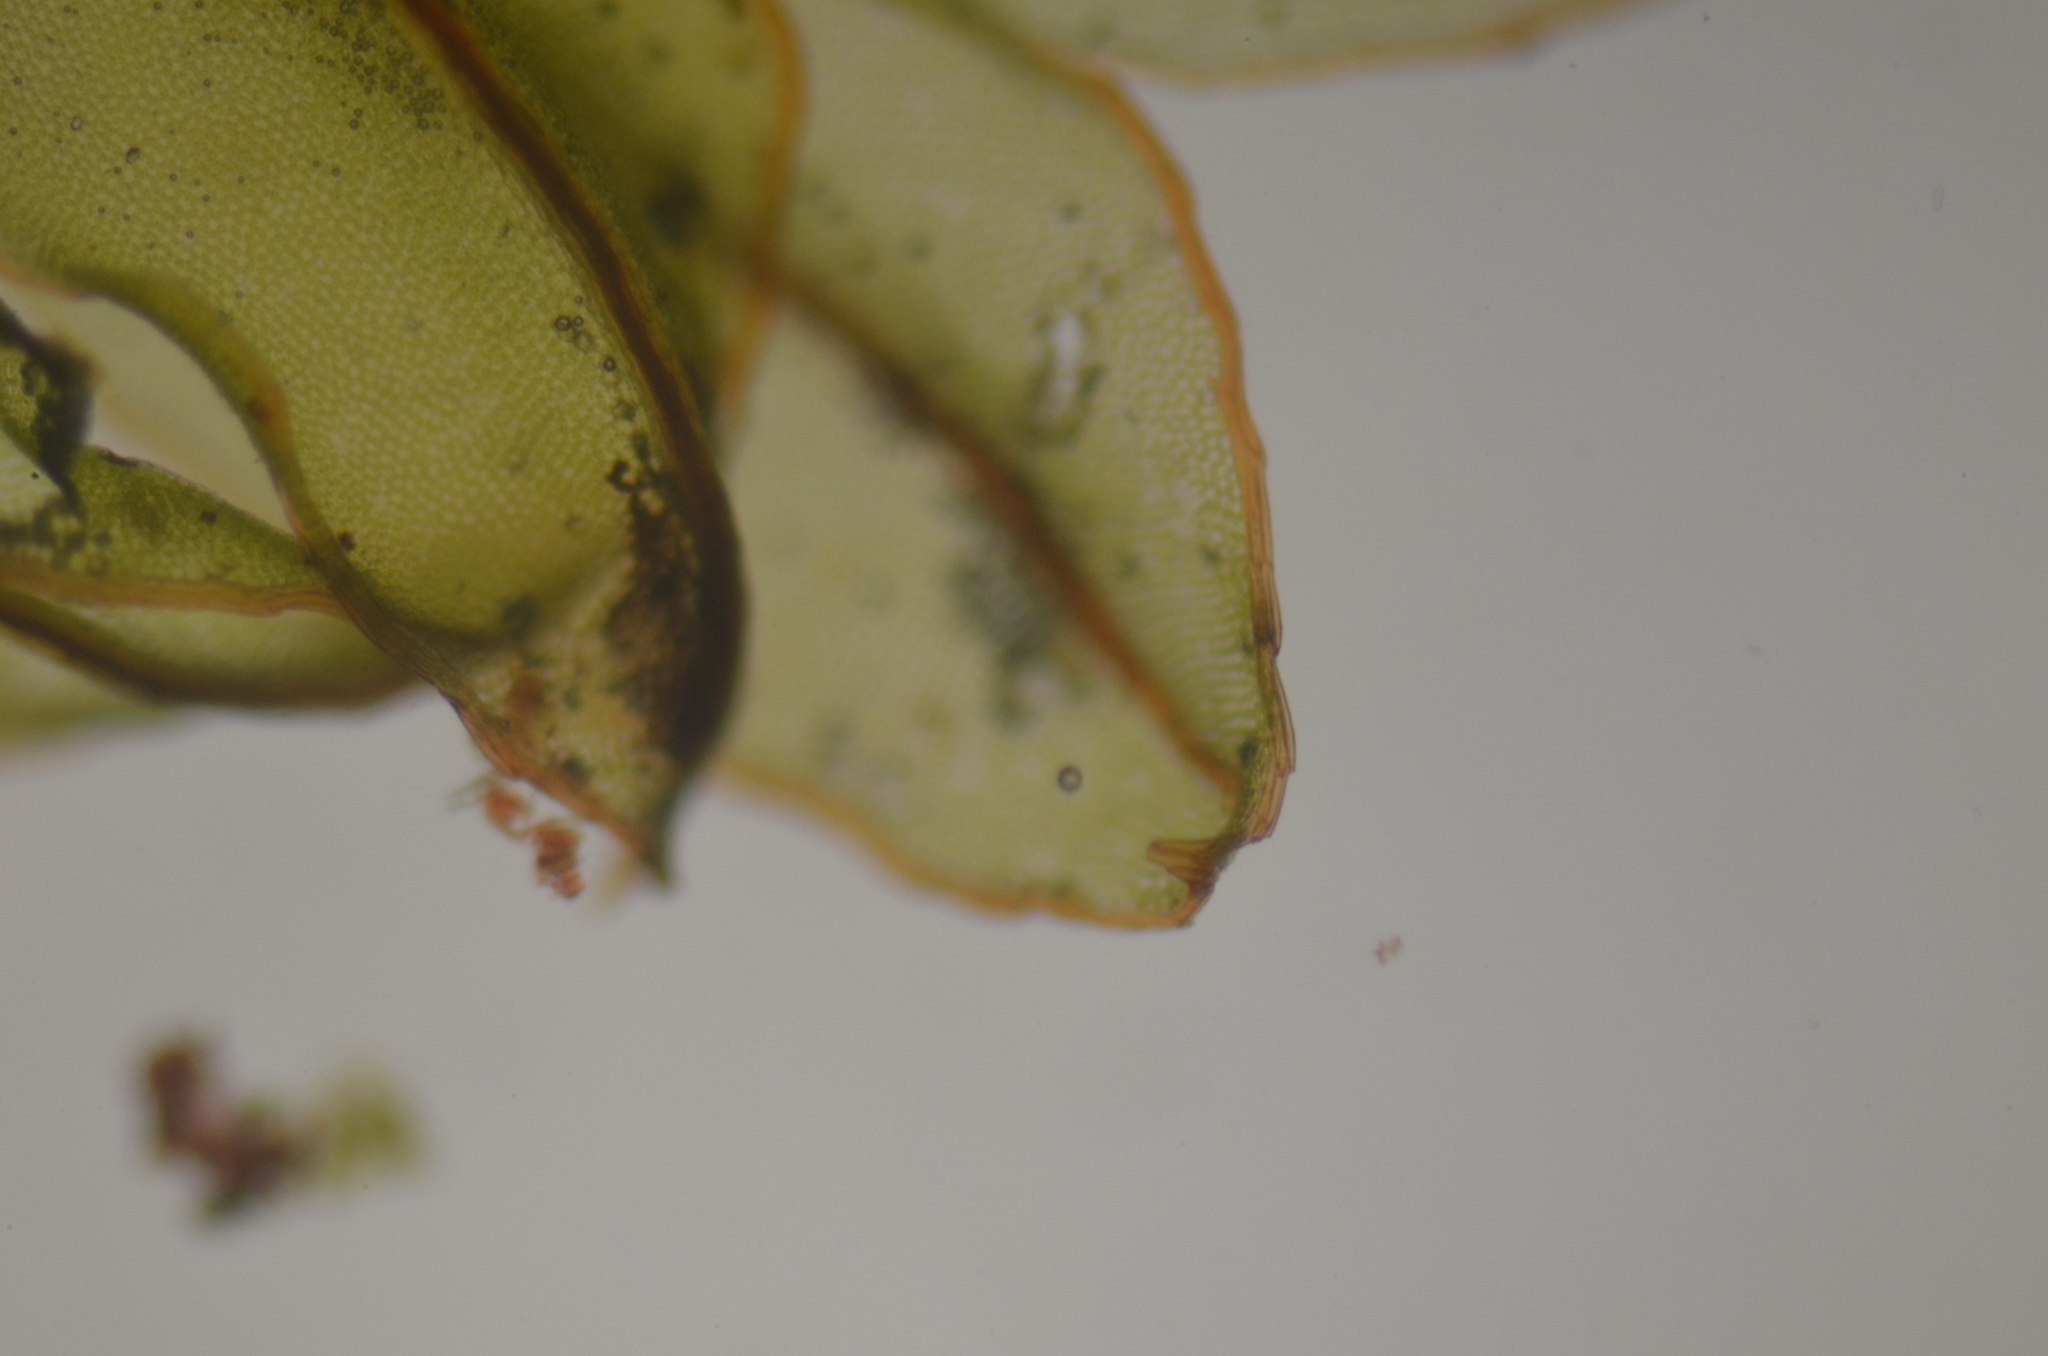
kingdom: Plantae
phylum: Bryophyta
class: Bryopsida
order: Bryales
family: Mniaceae
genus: Mnium
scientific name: Mnium blyttii
